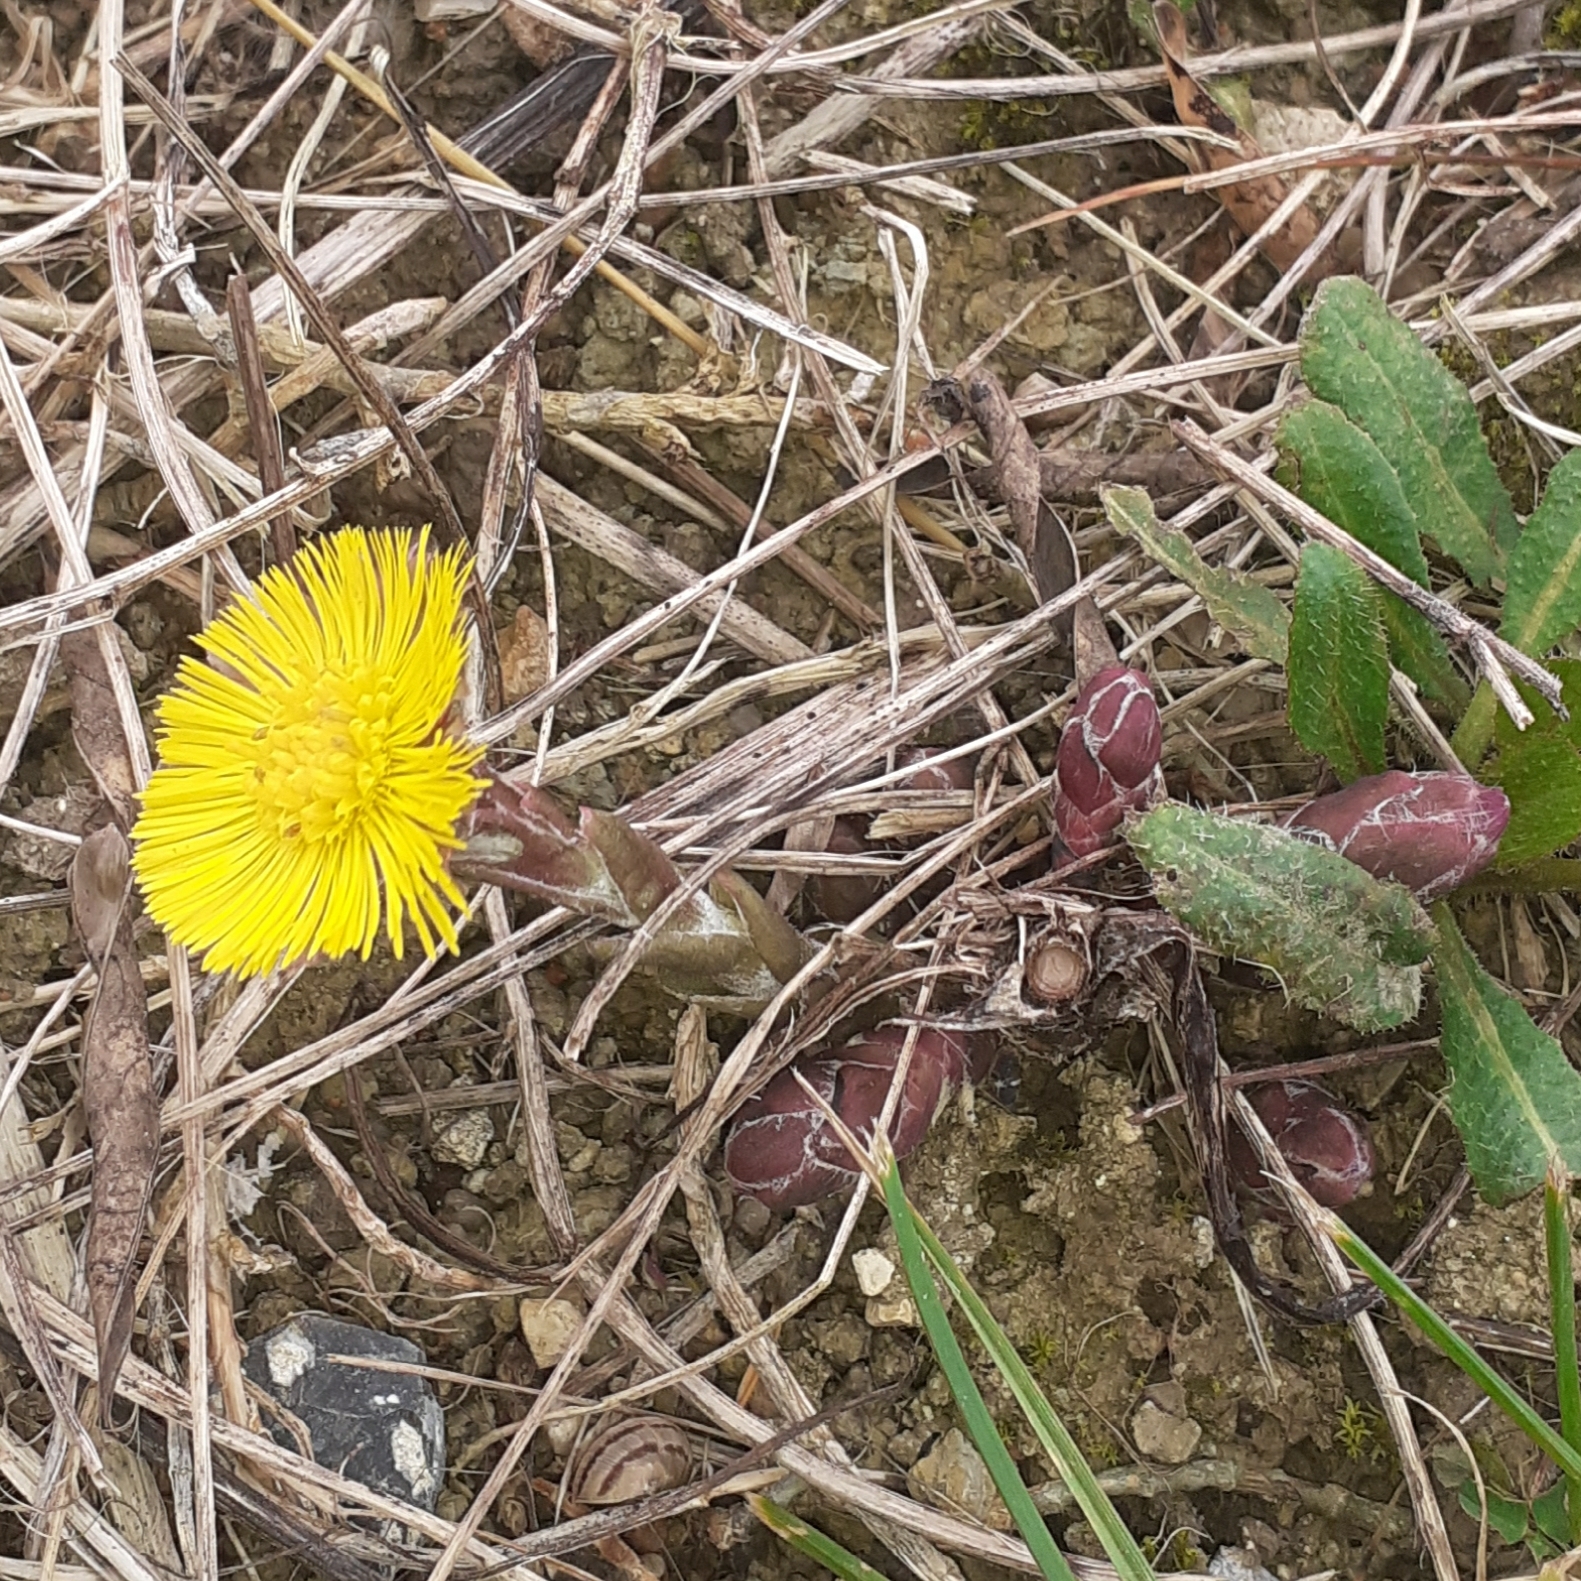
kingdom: Plantae
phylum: Tracheophyta
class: Magnoliopsida
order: Asterales
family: Asteraceae
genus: Tussilago
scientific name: Tussilago farfara
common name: Coltsfoot
